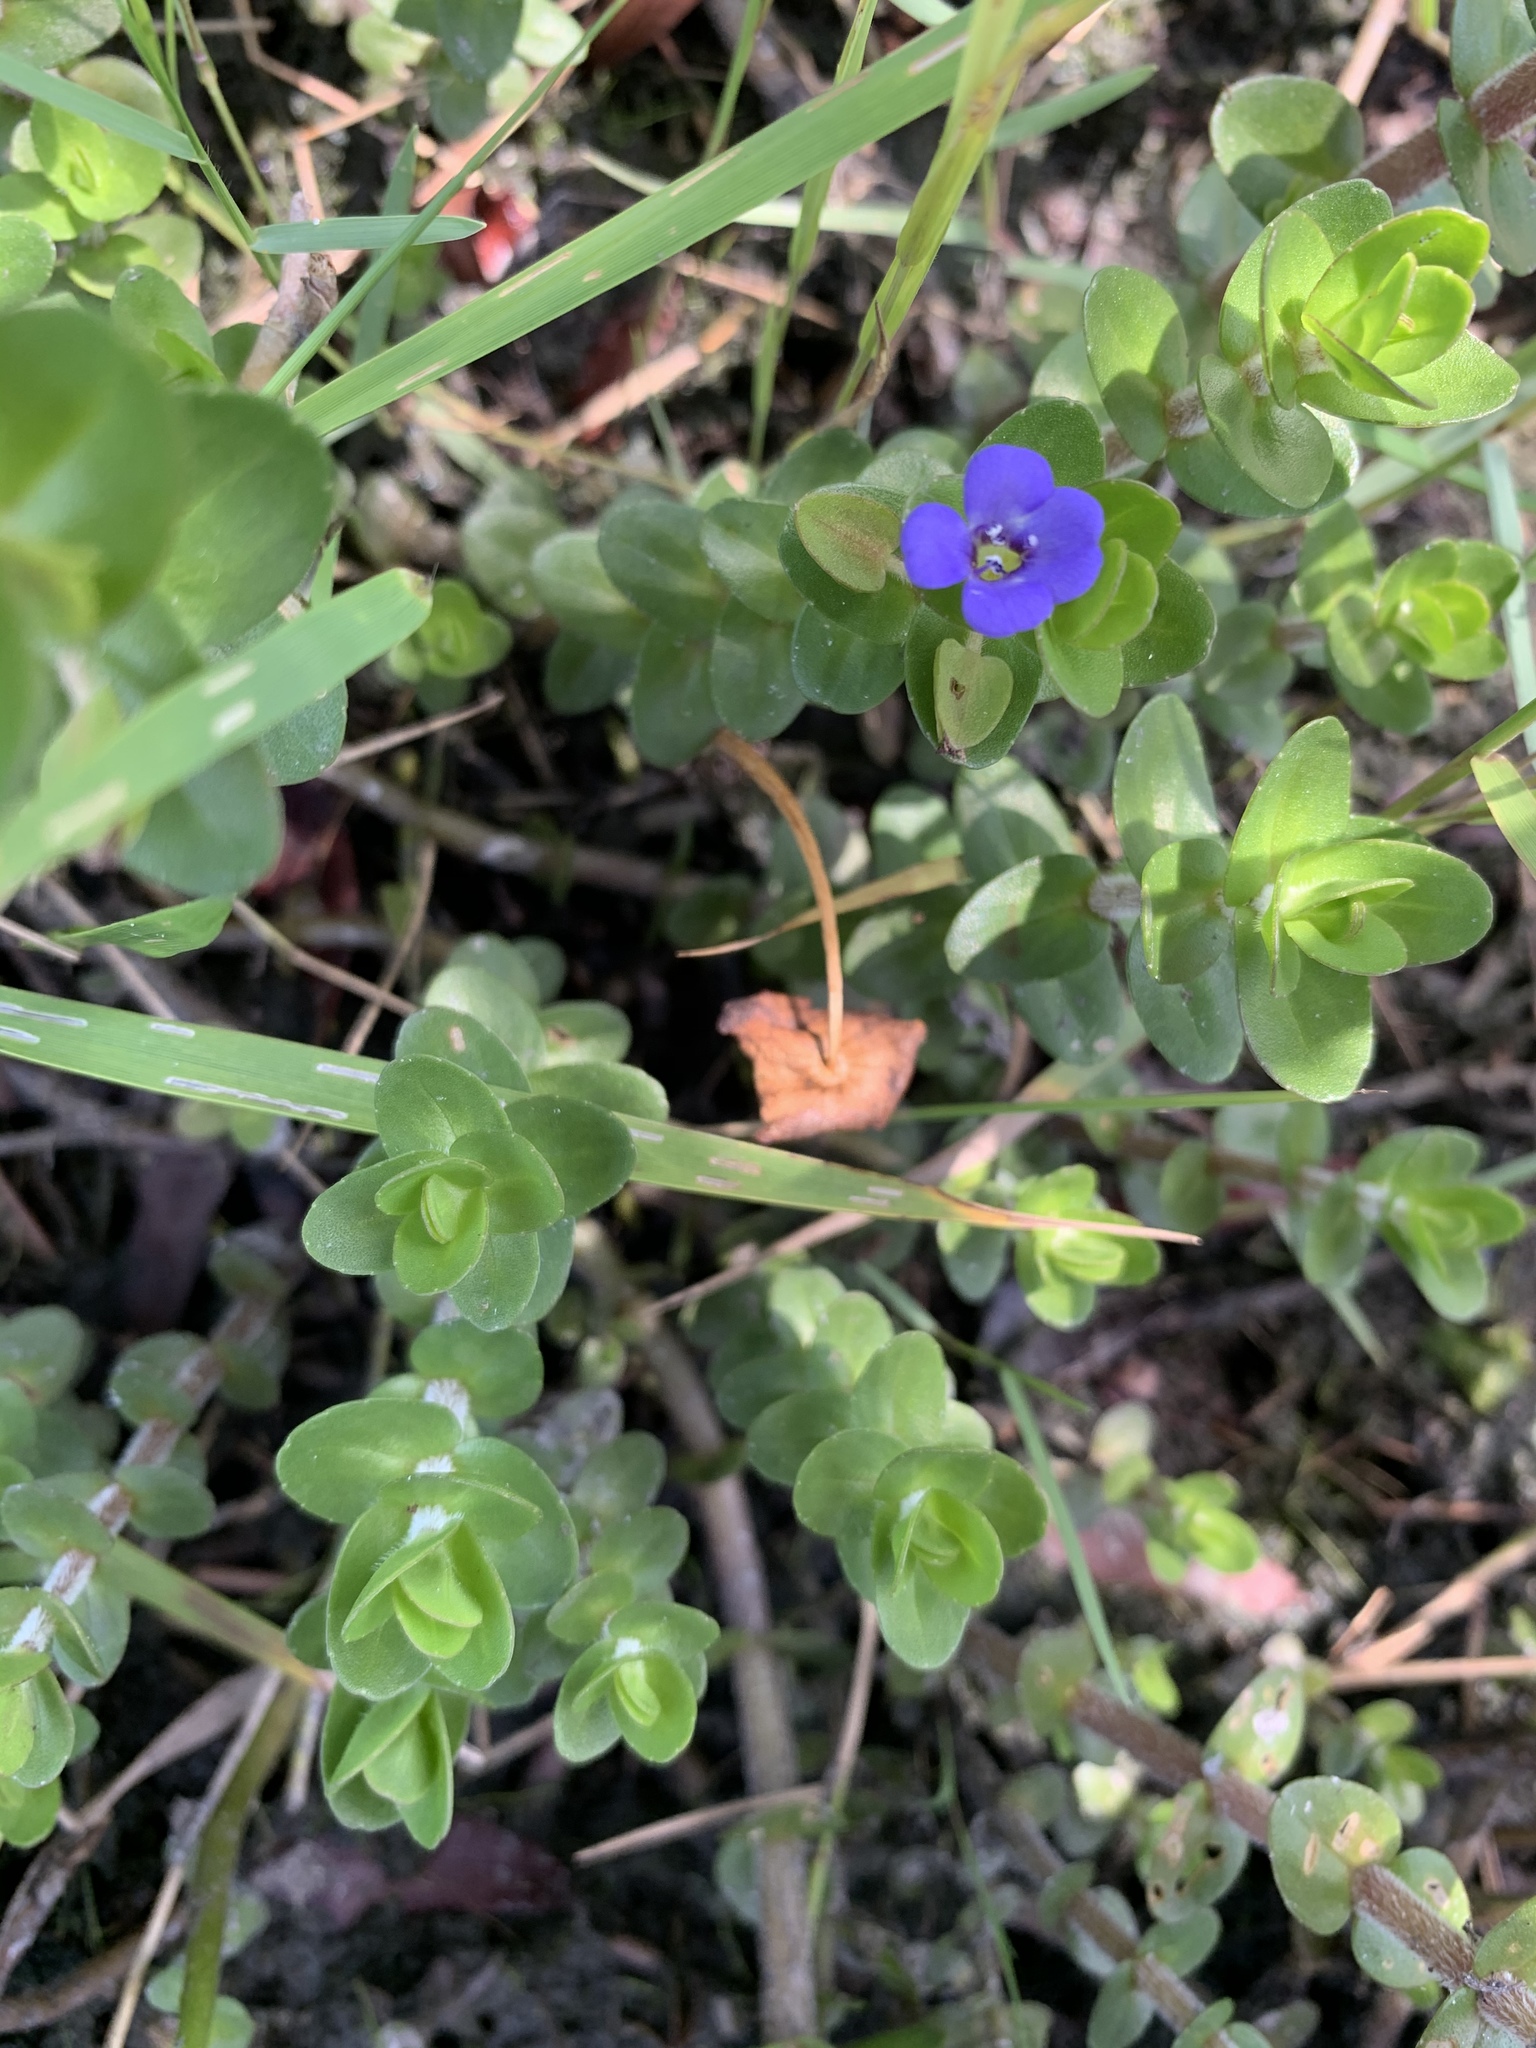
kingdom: Plantae
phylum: Tracheophyta
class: Magnoliopsida
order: Lamiales
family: Plantaginaceae
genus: Bacopa
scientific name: Bacopa caroliniana
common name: Lemon bacopa
